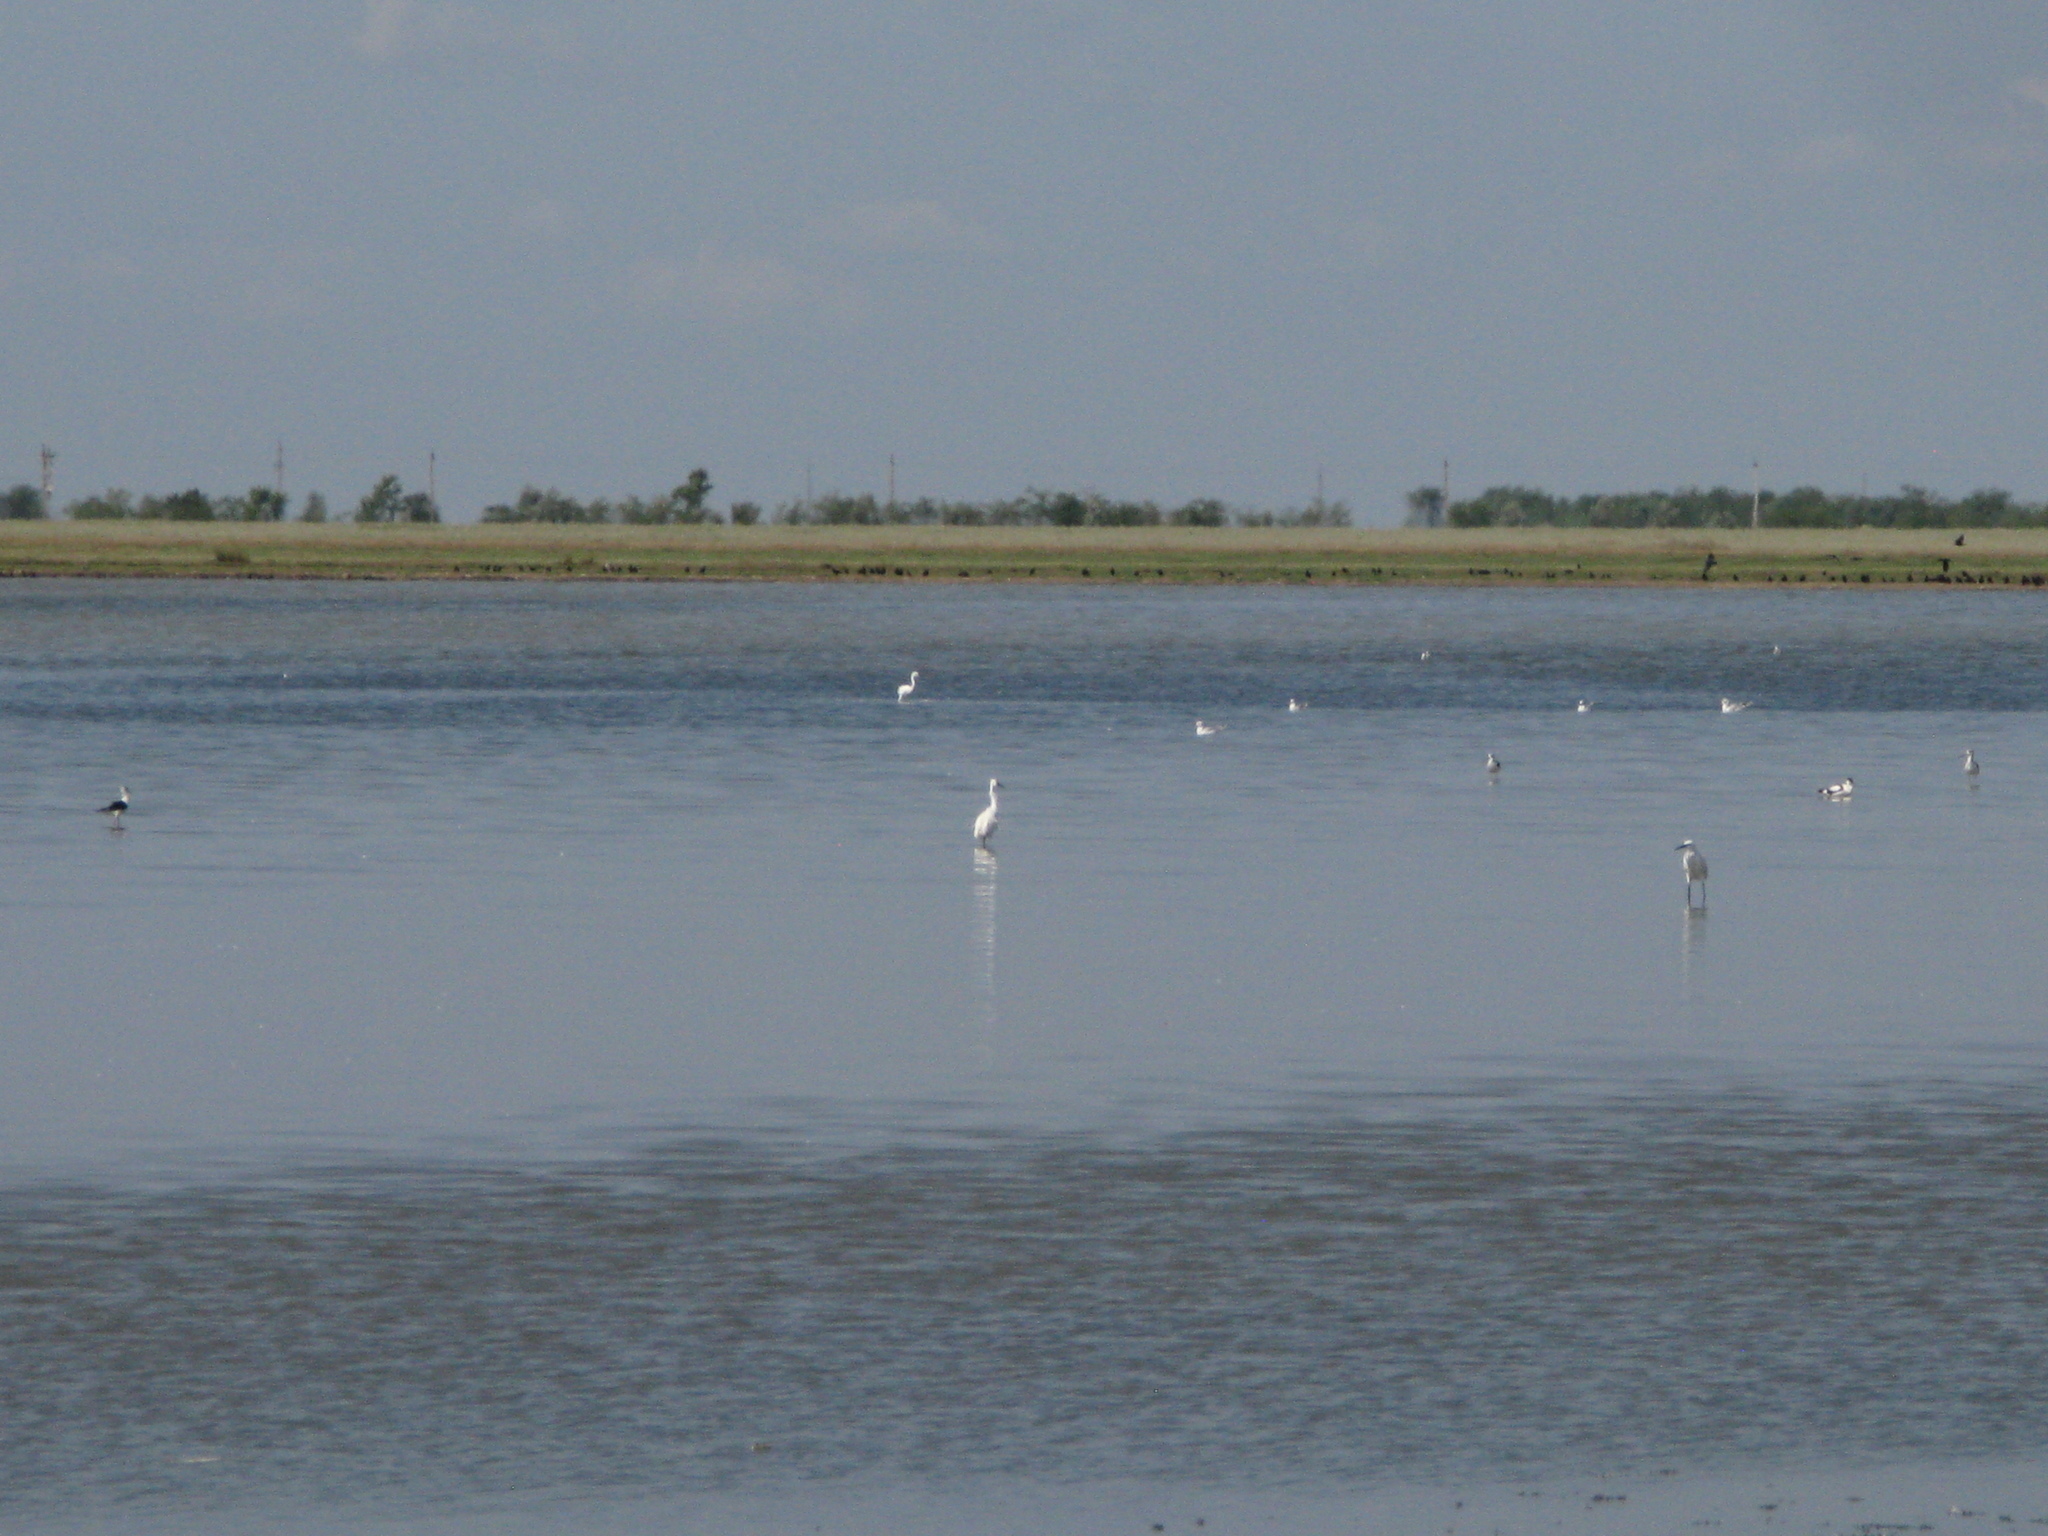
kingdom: Animalia
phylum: Chordata
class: Aves
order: Charadriiformes
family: Recurvirostridae
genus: Recurvirostra
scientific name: Recurvirostra avosetta
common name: Pied avocet
